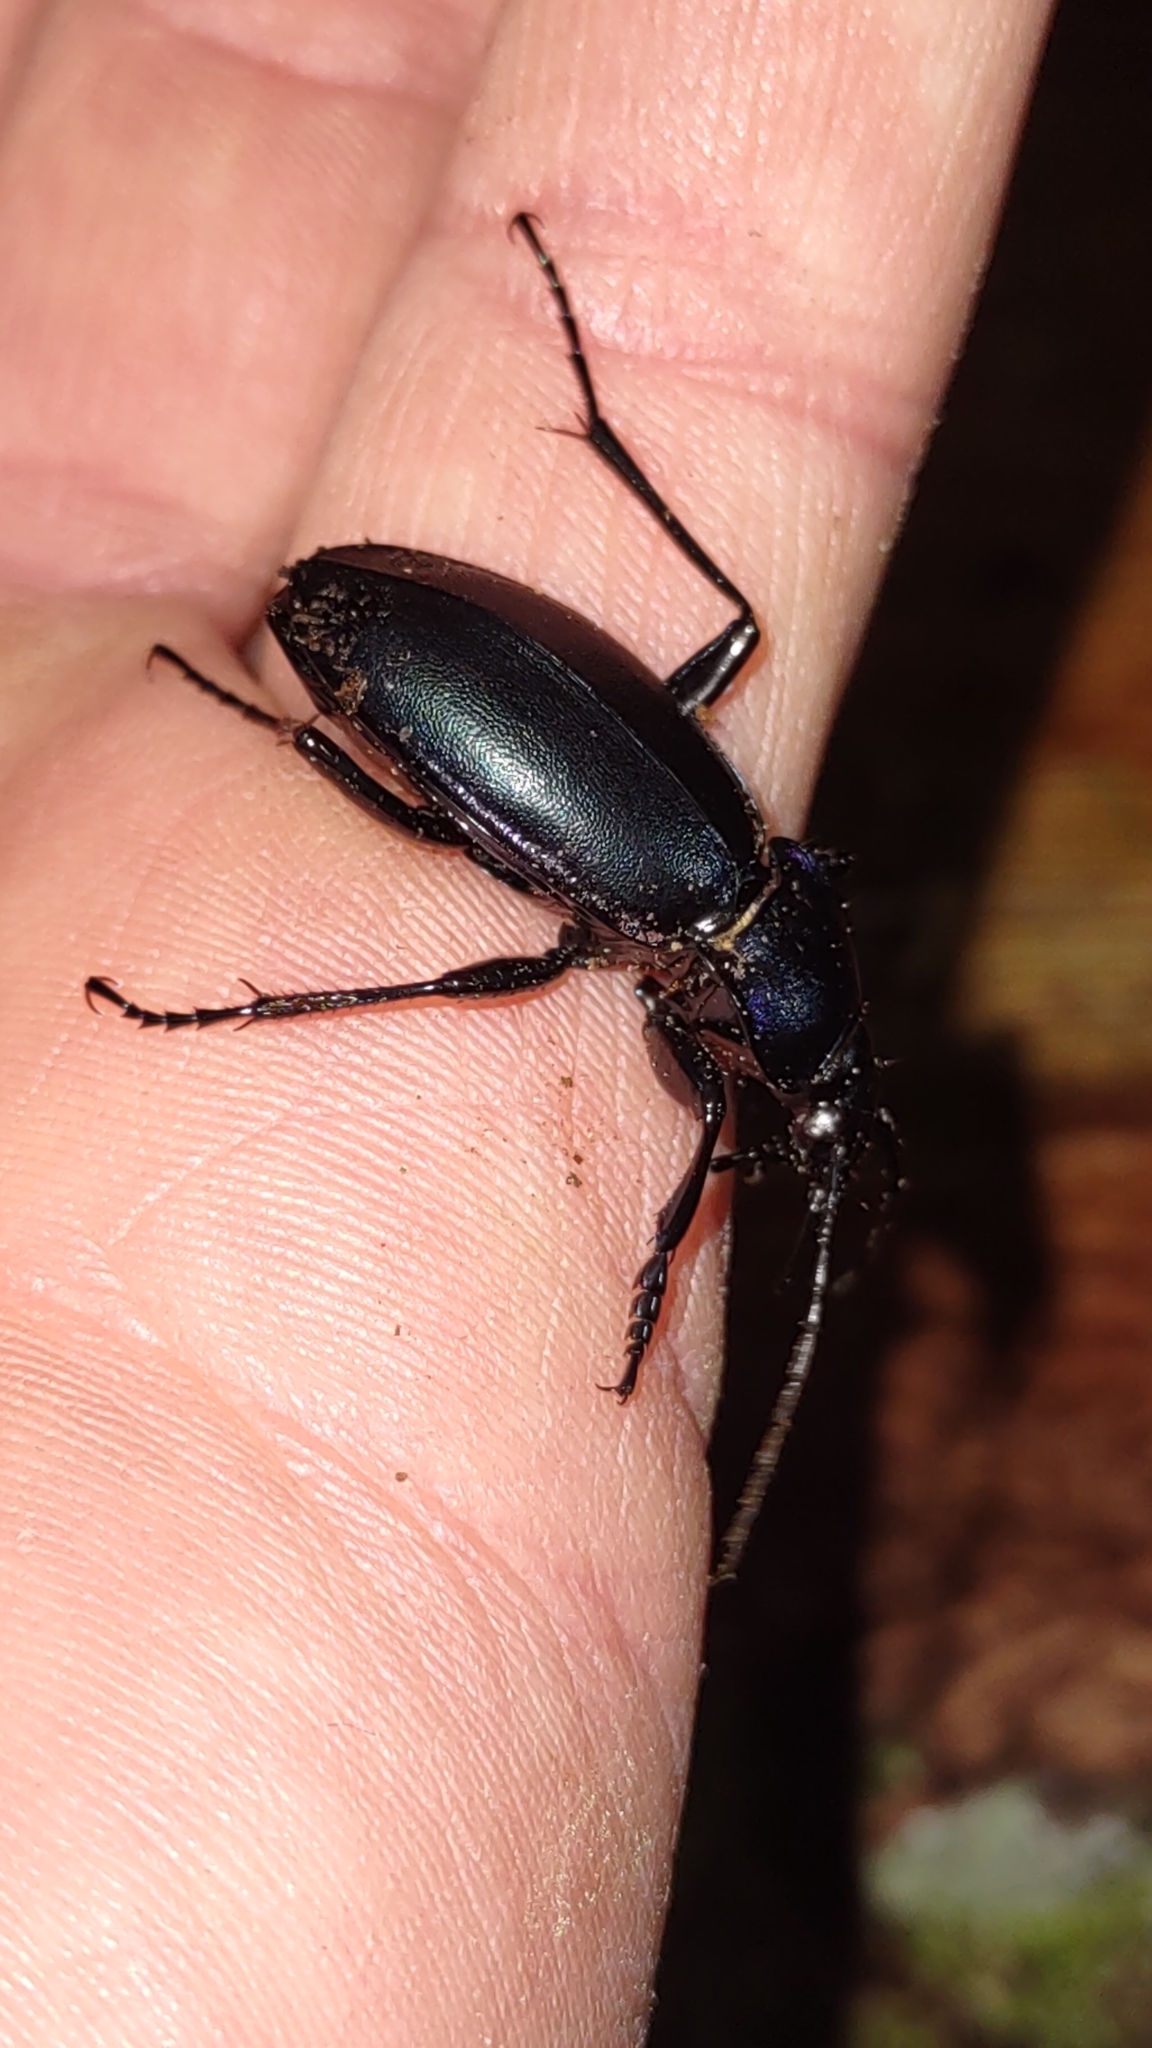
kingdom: Animalia
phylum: Arthropoda
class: Insecta
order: Coleoptera
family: Carabidae
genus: Carabus
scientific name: Carabus violaceus
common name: Violet ground beetle
